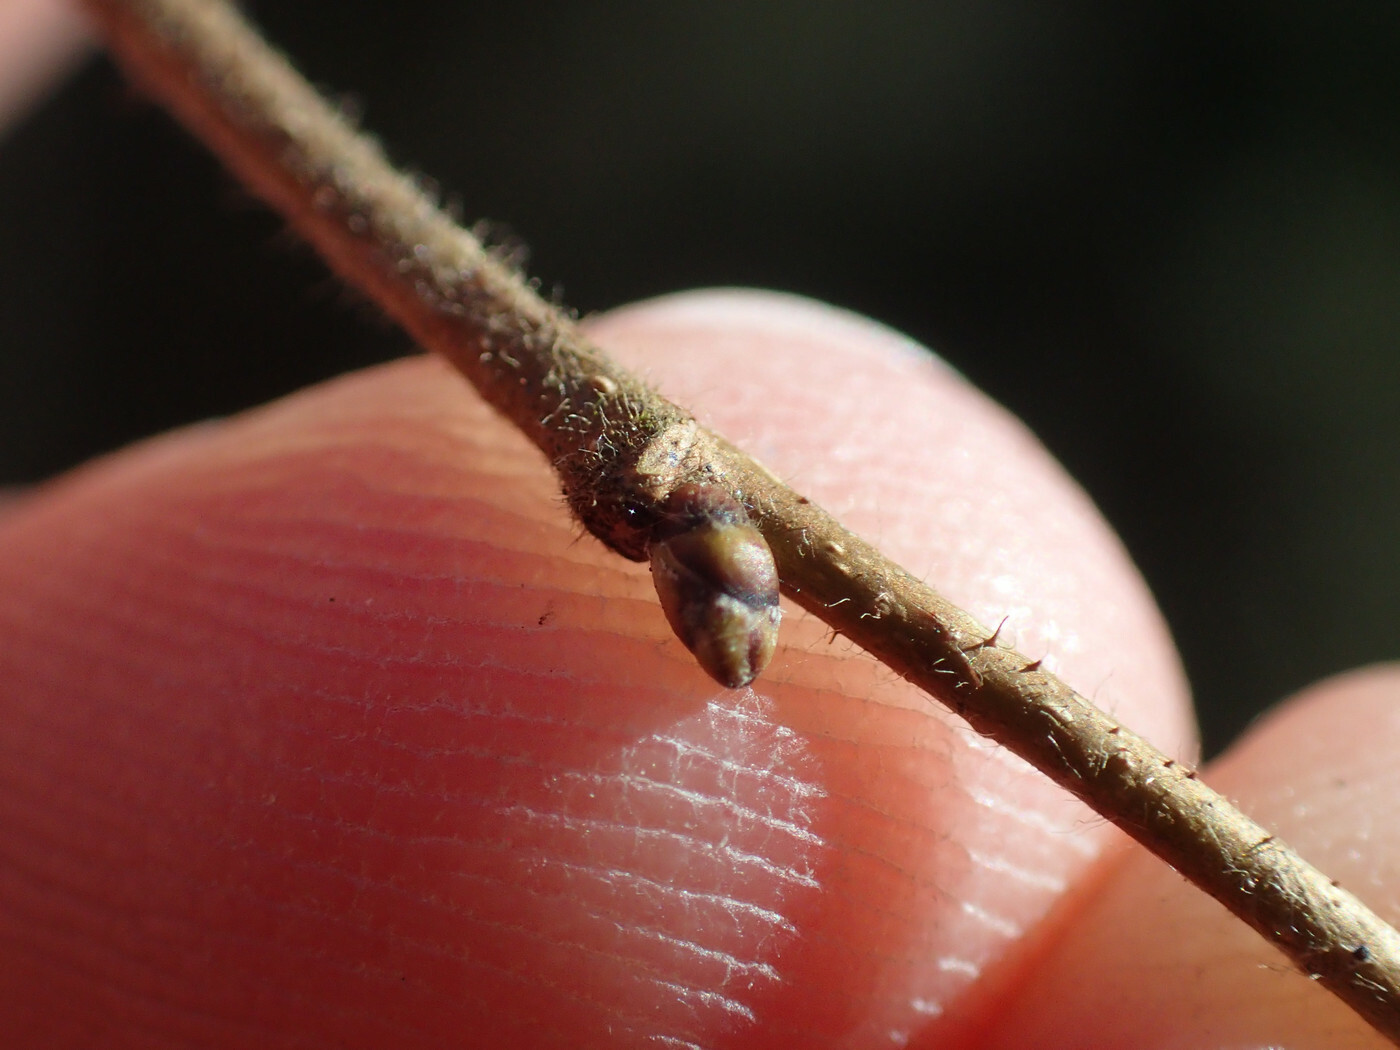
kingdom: Plantae
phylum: Tracheophyta
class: Magnoliopsida
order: Fagales
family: Betulaceae
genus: Corylus
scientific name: Corylus americana
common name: American hazel
